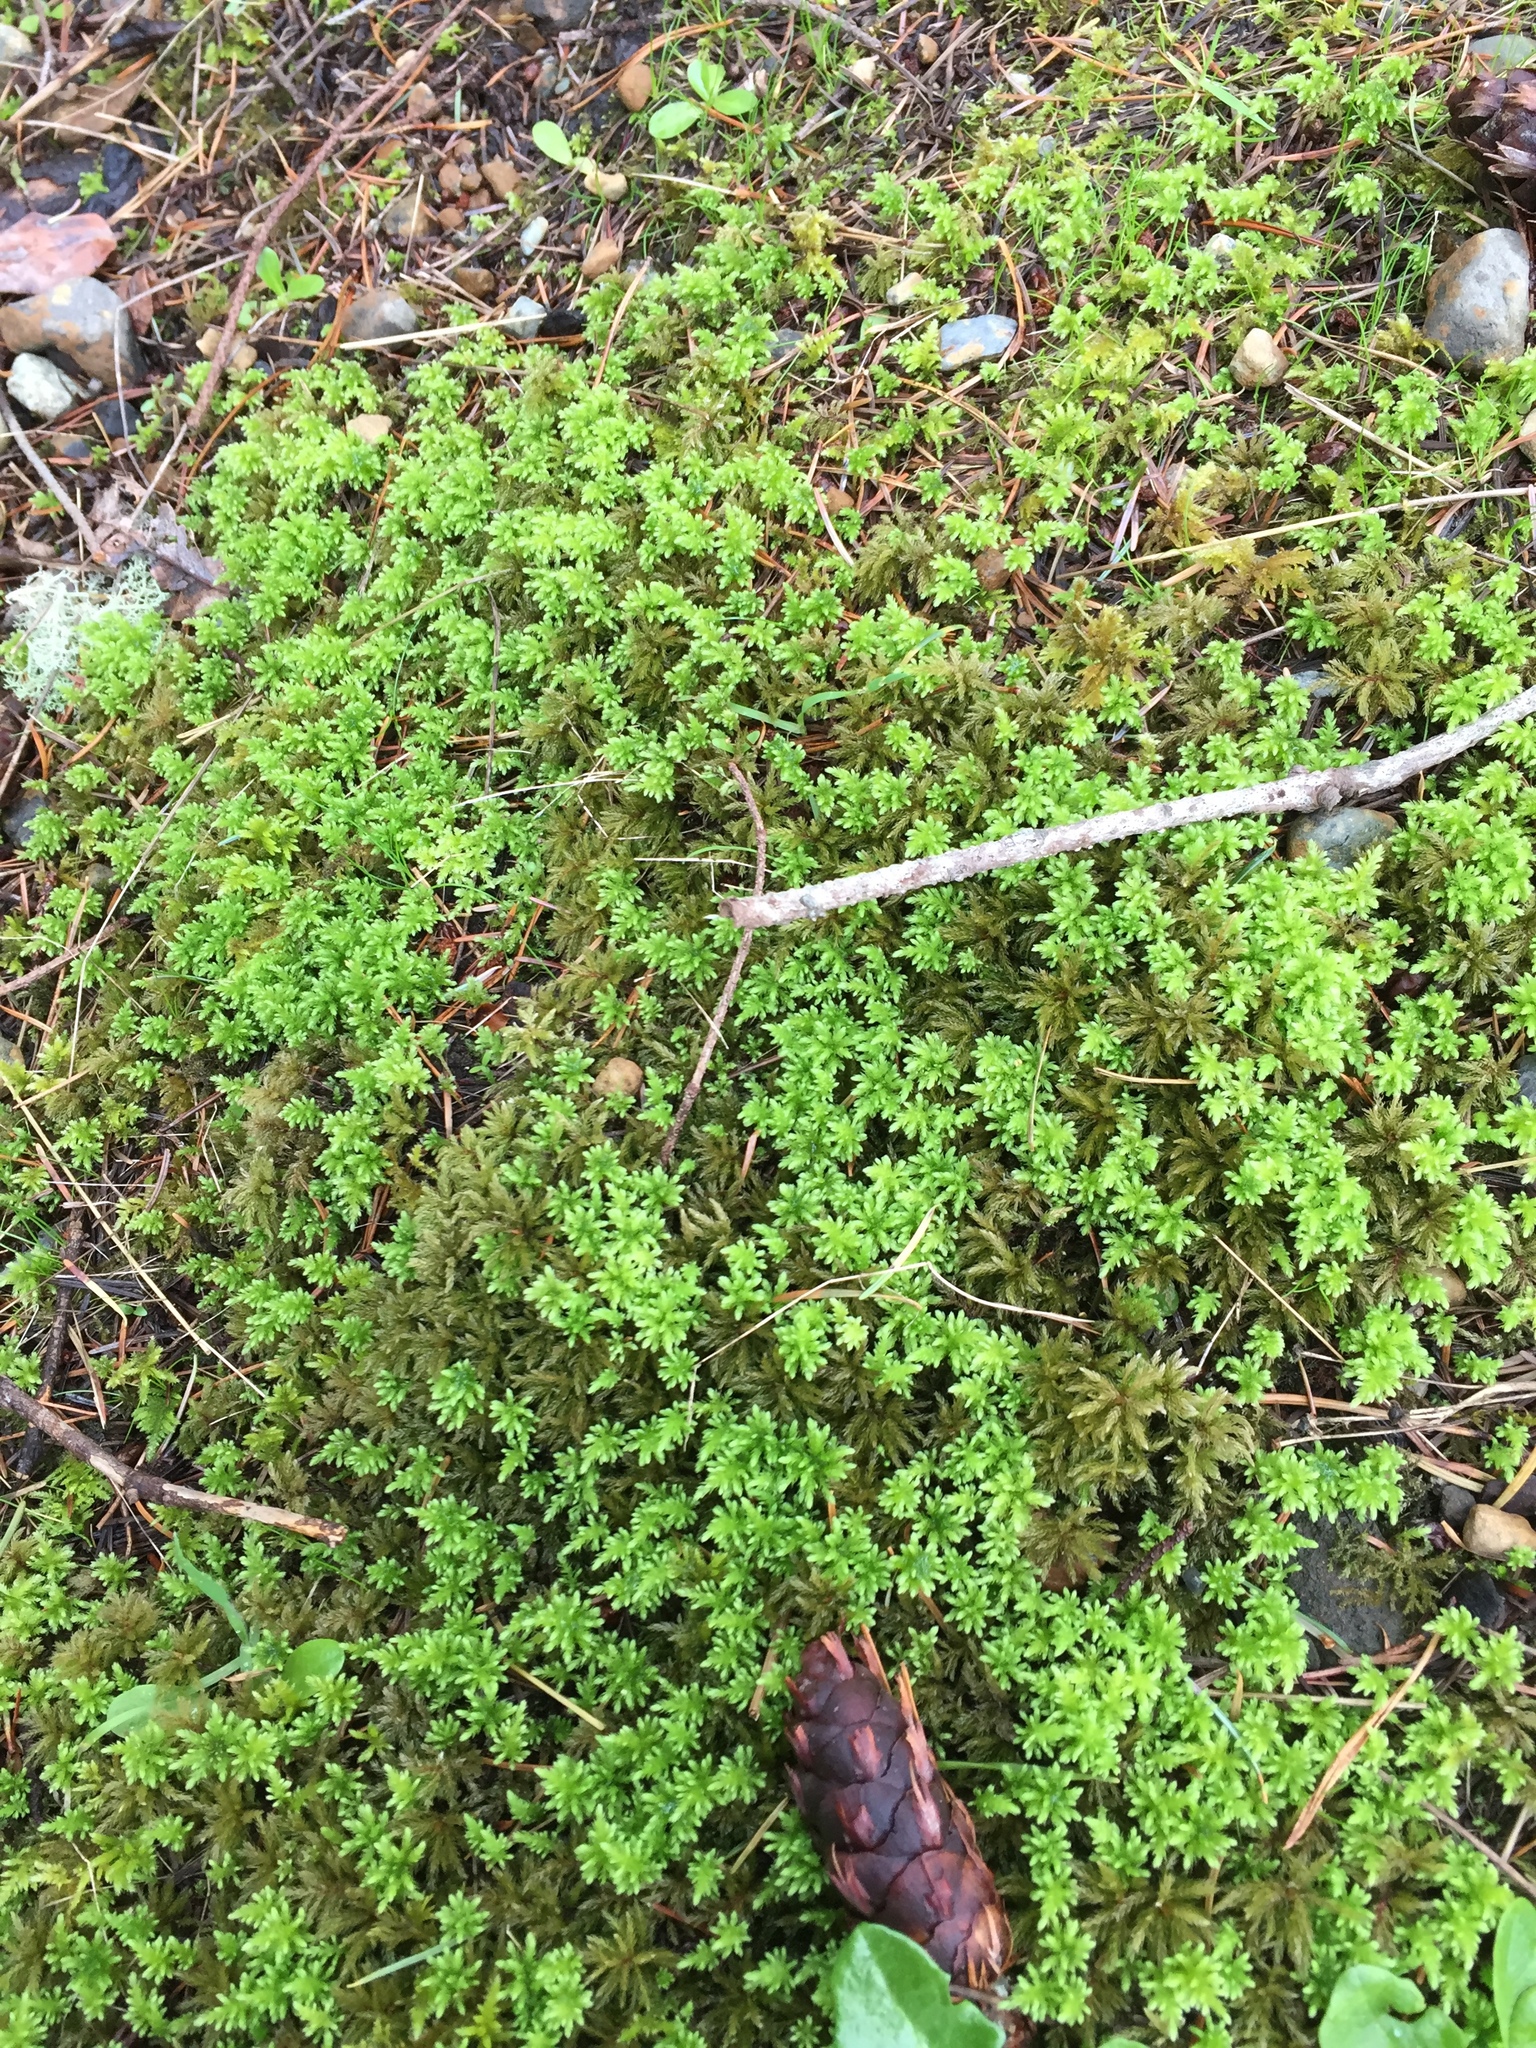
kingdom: Plantae
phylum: Bryophyta
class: Bryopsida
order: Bryales
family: Mniaceae
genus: Leucolepis
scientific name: Leucolepis acanthoneura
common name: Leucolepis umbrella moss
